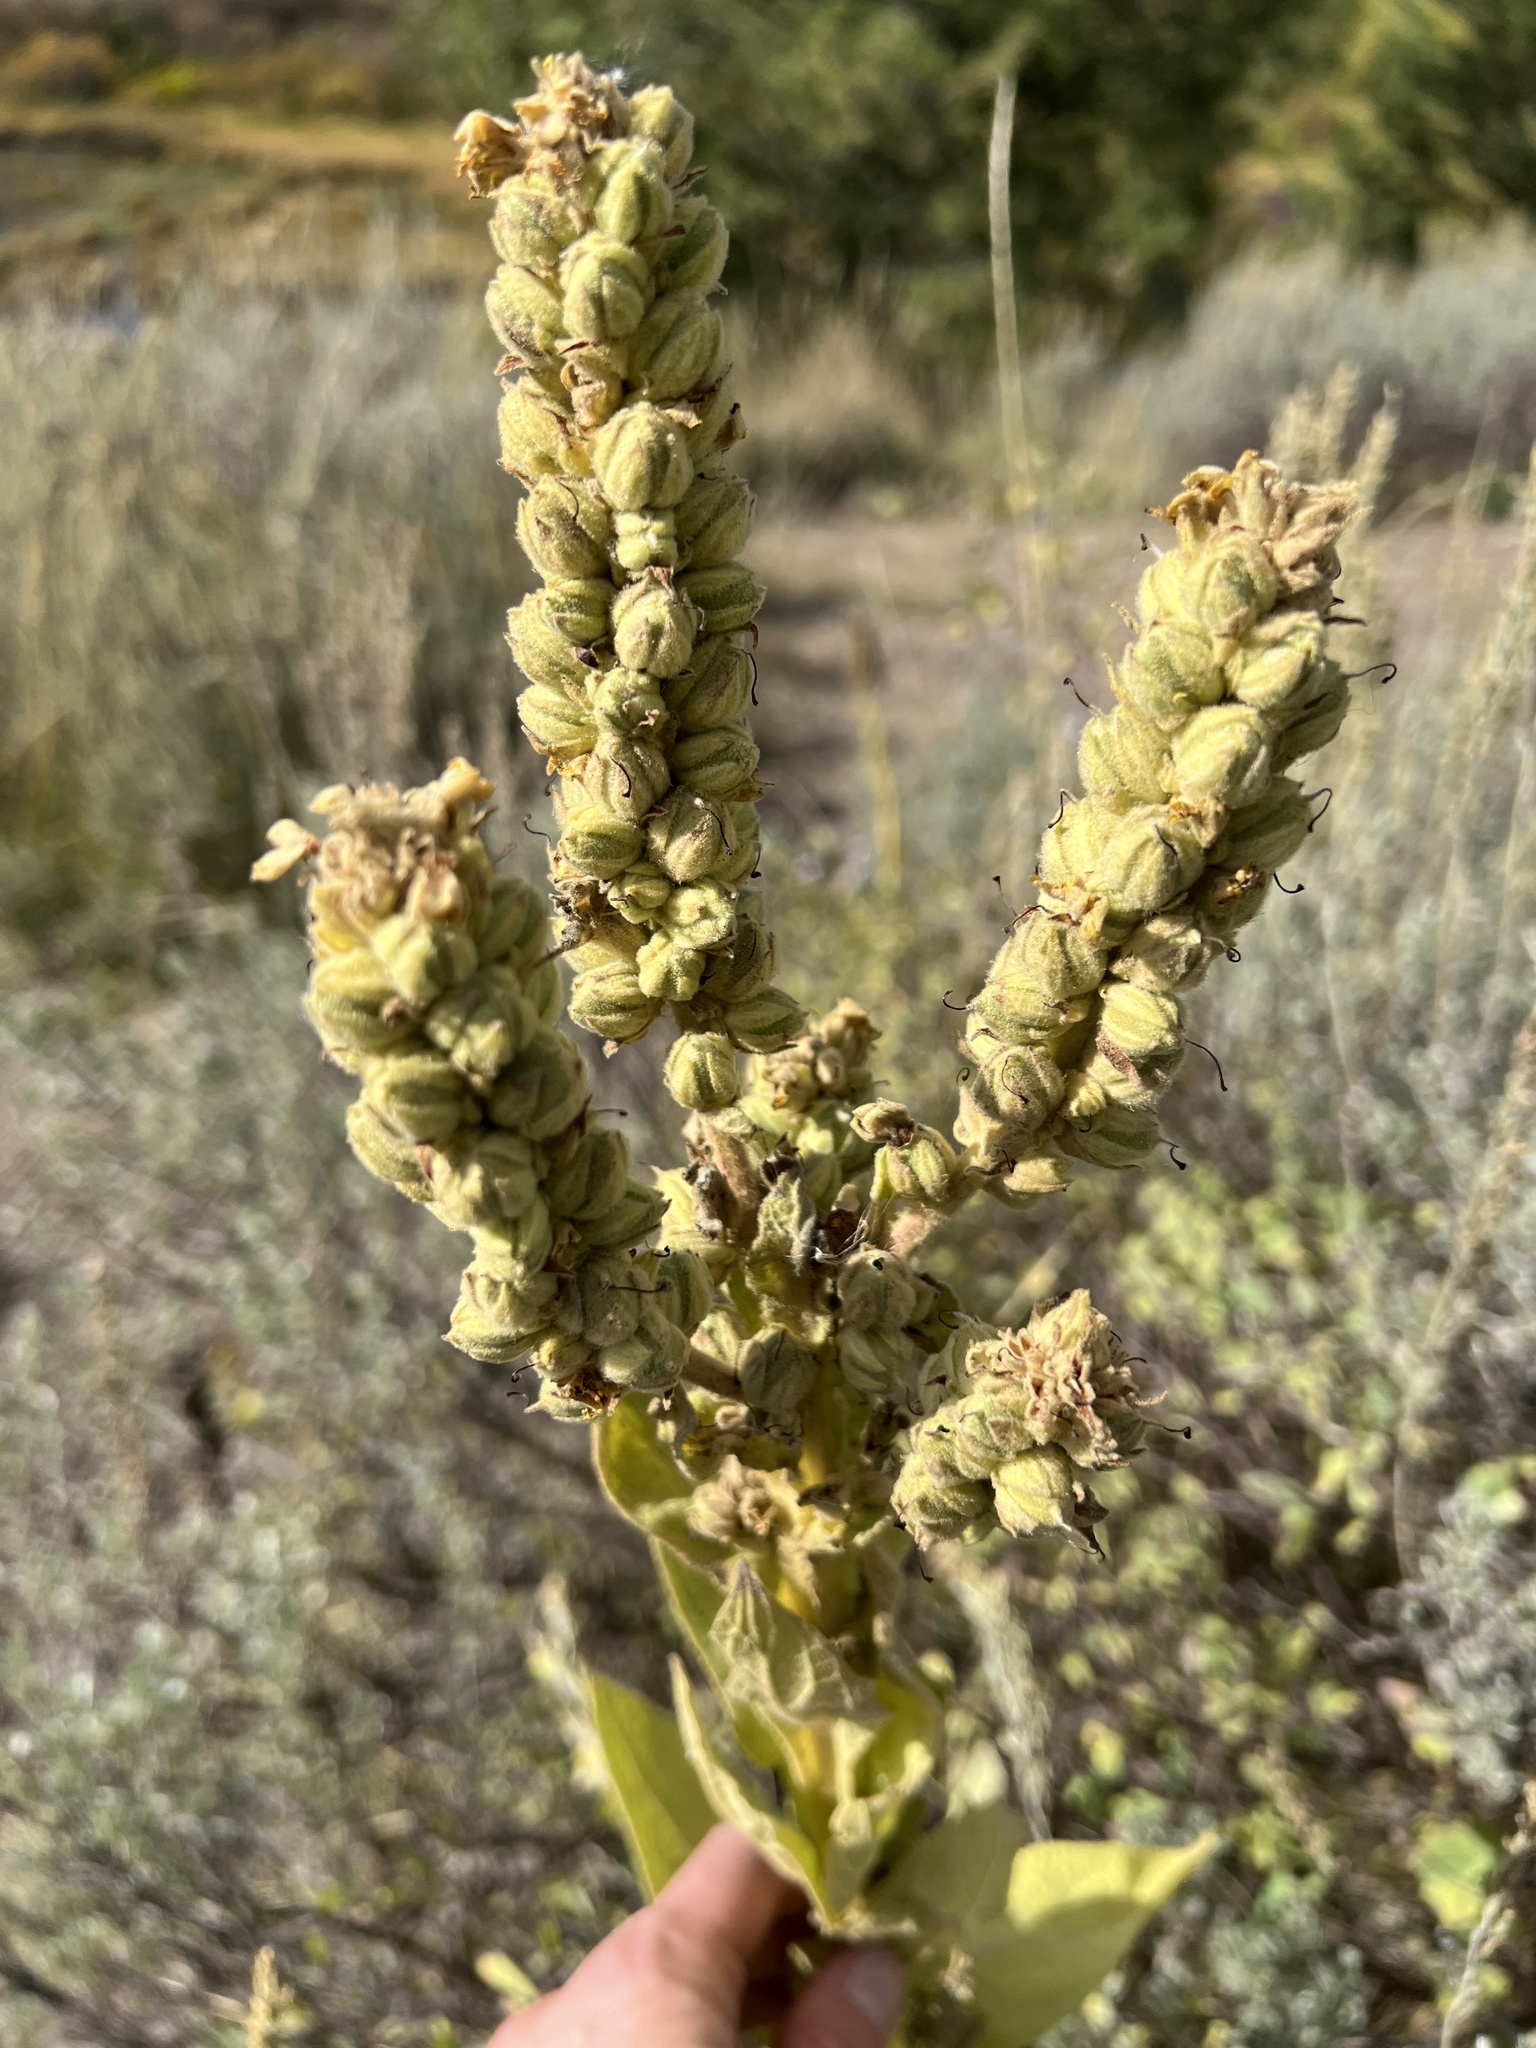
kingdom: Plantae
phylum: Tracheophyta
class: Magnoliopsida
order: Lamiales
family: Scrophulariaceae
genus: Verbascum
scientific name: Verbascum thapsus
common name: Common mullein
